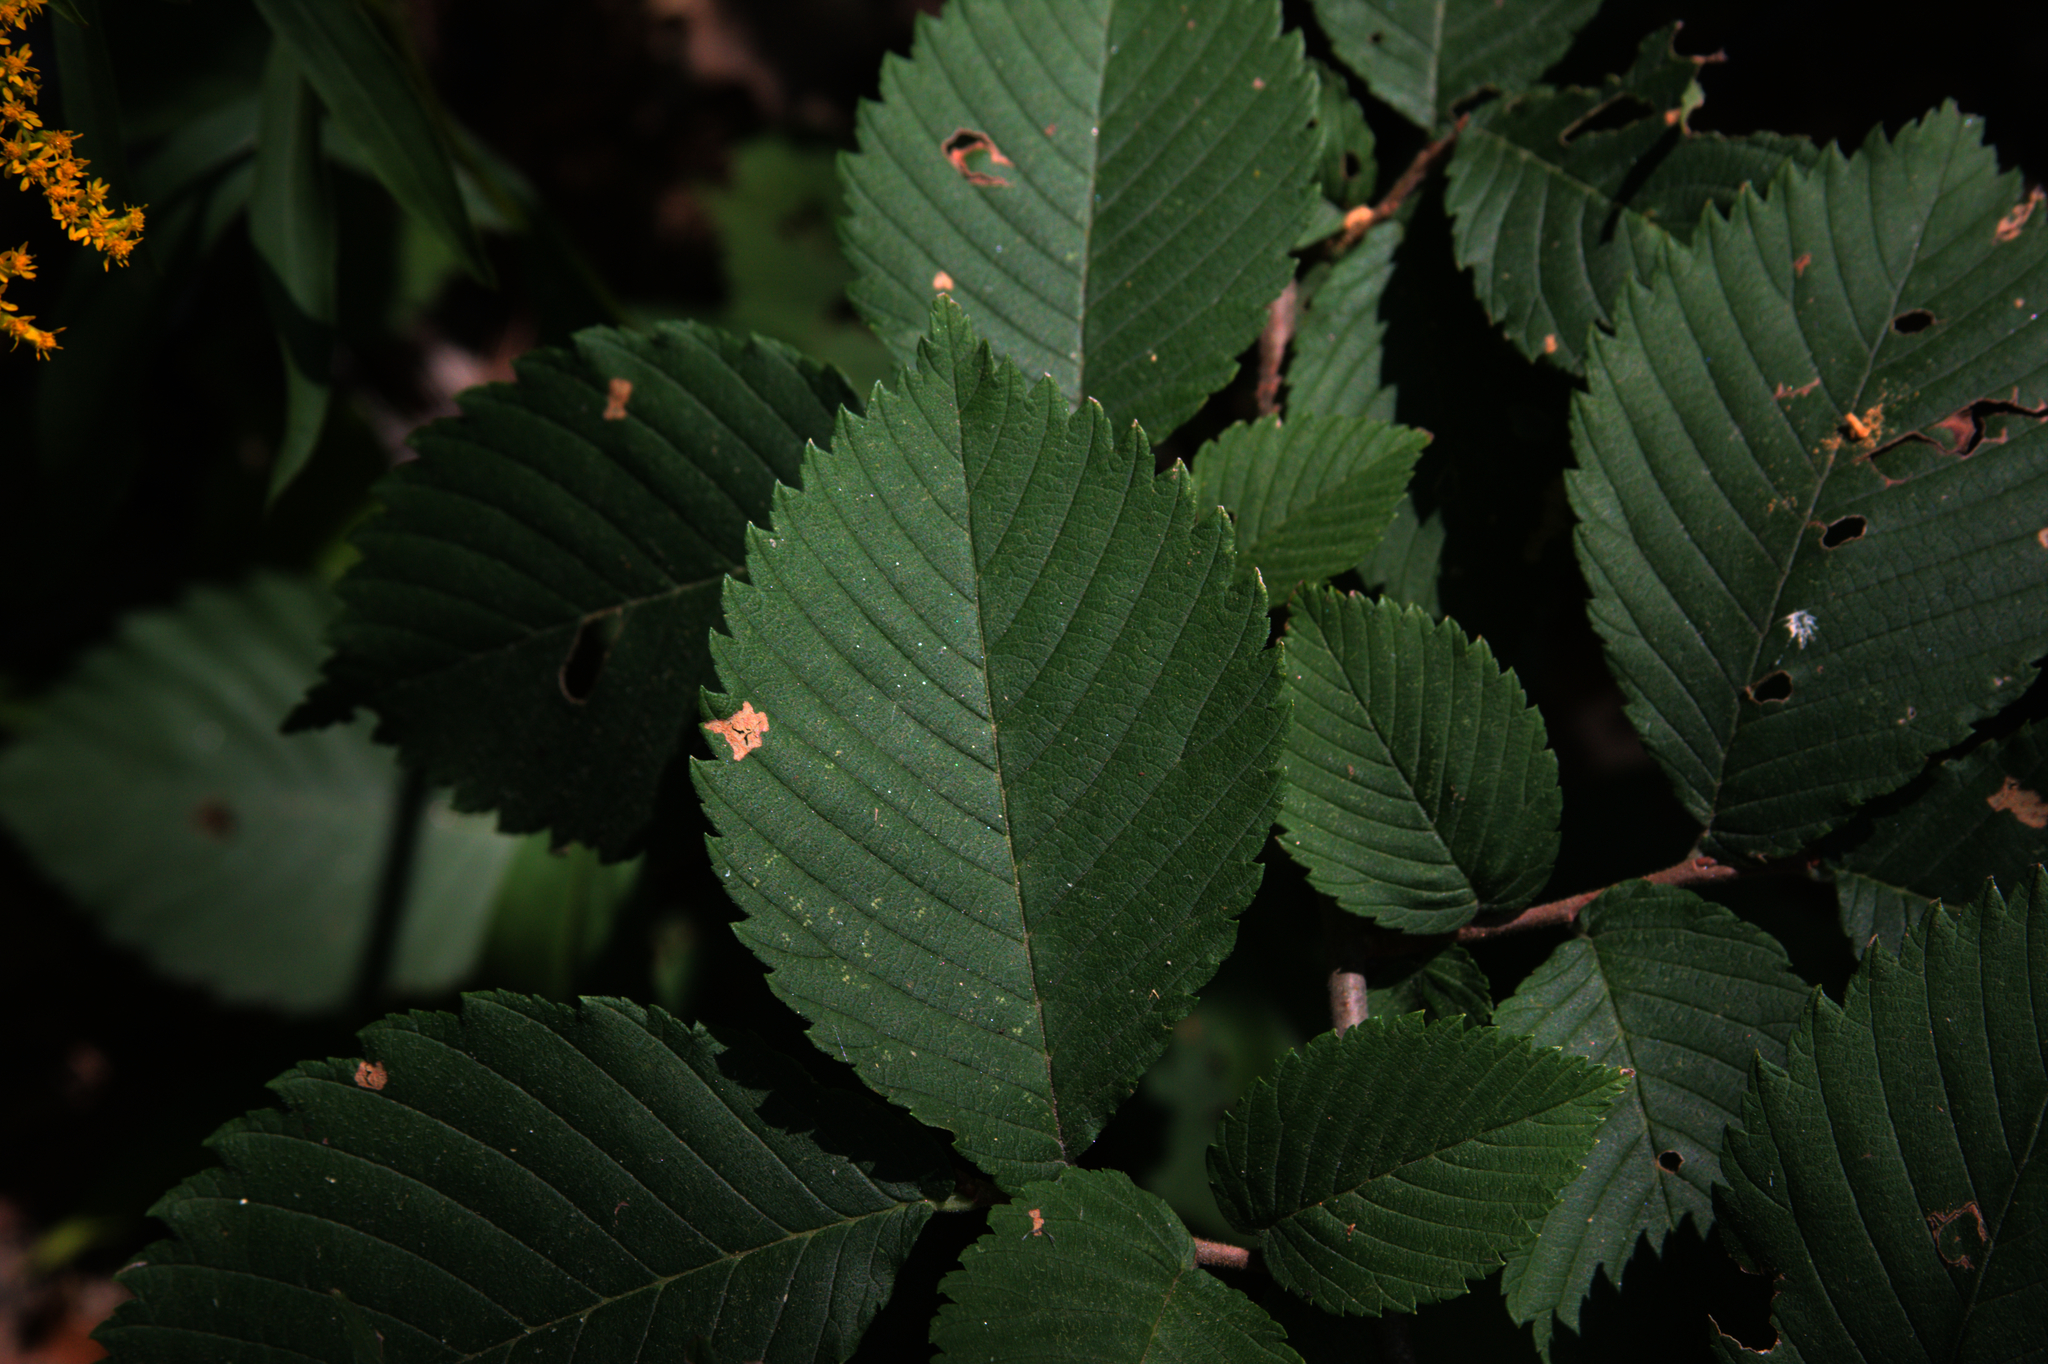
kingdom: Plantae
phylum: Tracheophyta
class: Magnoliopsida
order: Rosales
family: Ulmaceae
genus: Ulmus
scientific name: Ulmus americana
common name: American elm
